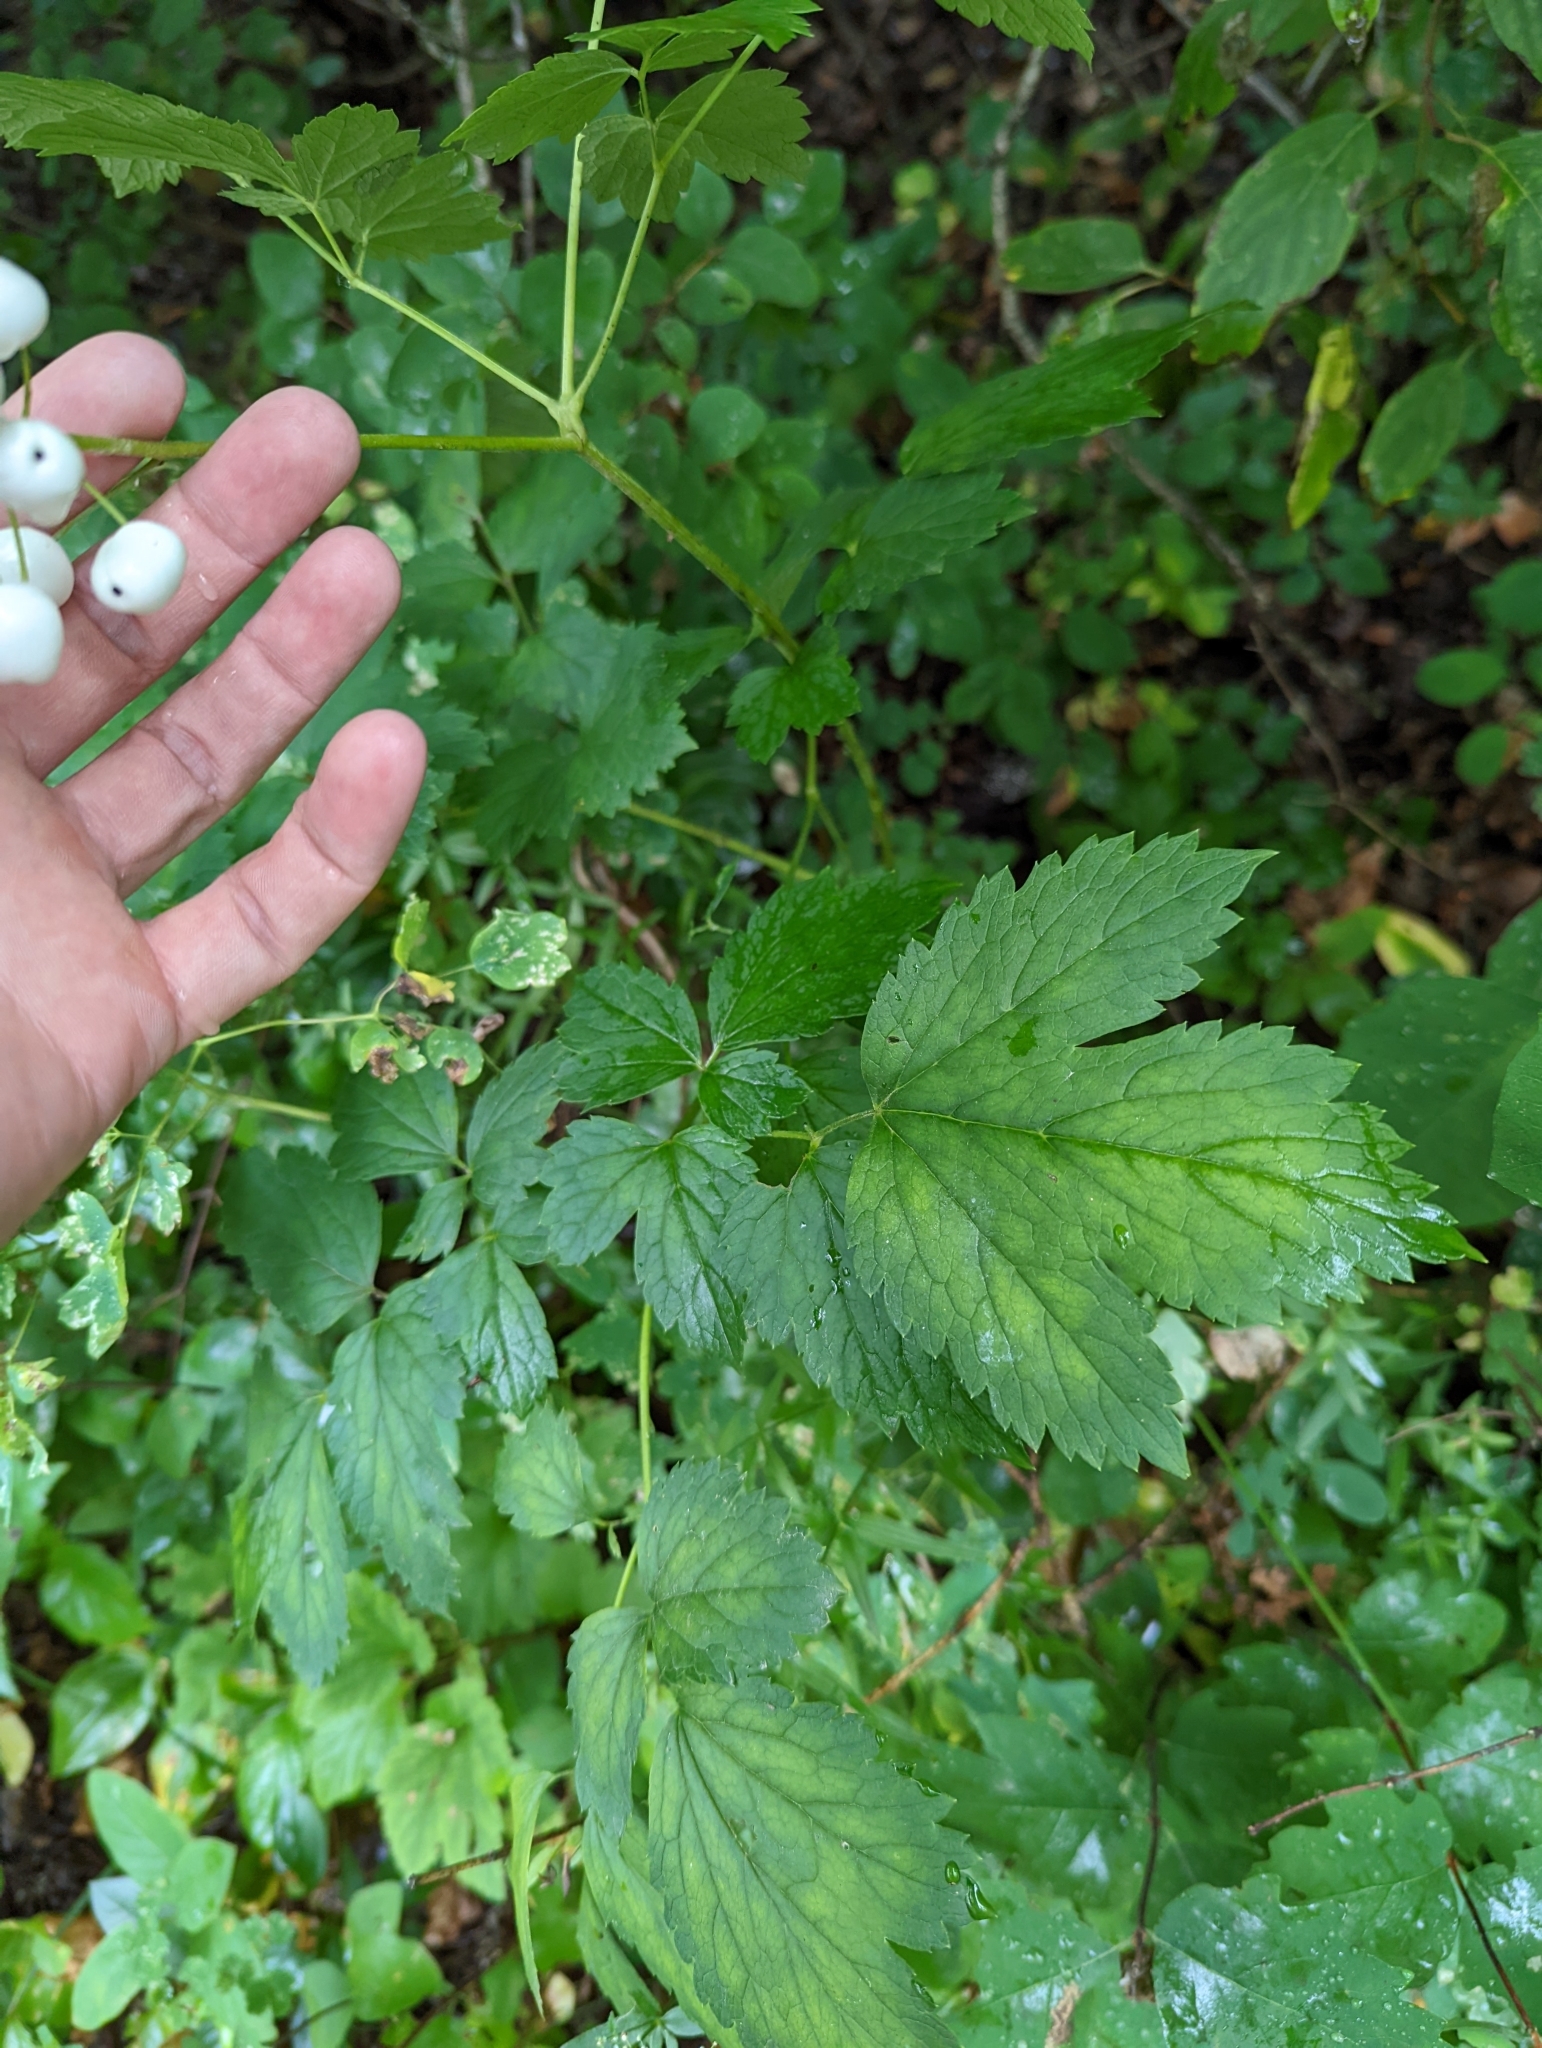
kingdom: Plantae
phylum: Tracheophyta
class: Magnoliopsida
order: Ranunculales
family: Ranunculaceae
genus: Actaea
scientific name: Actaea rubra
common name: Red baneberry
